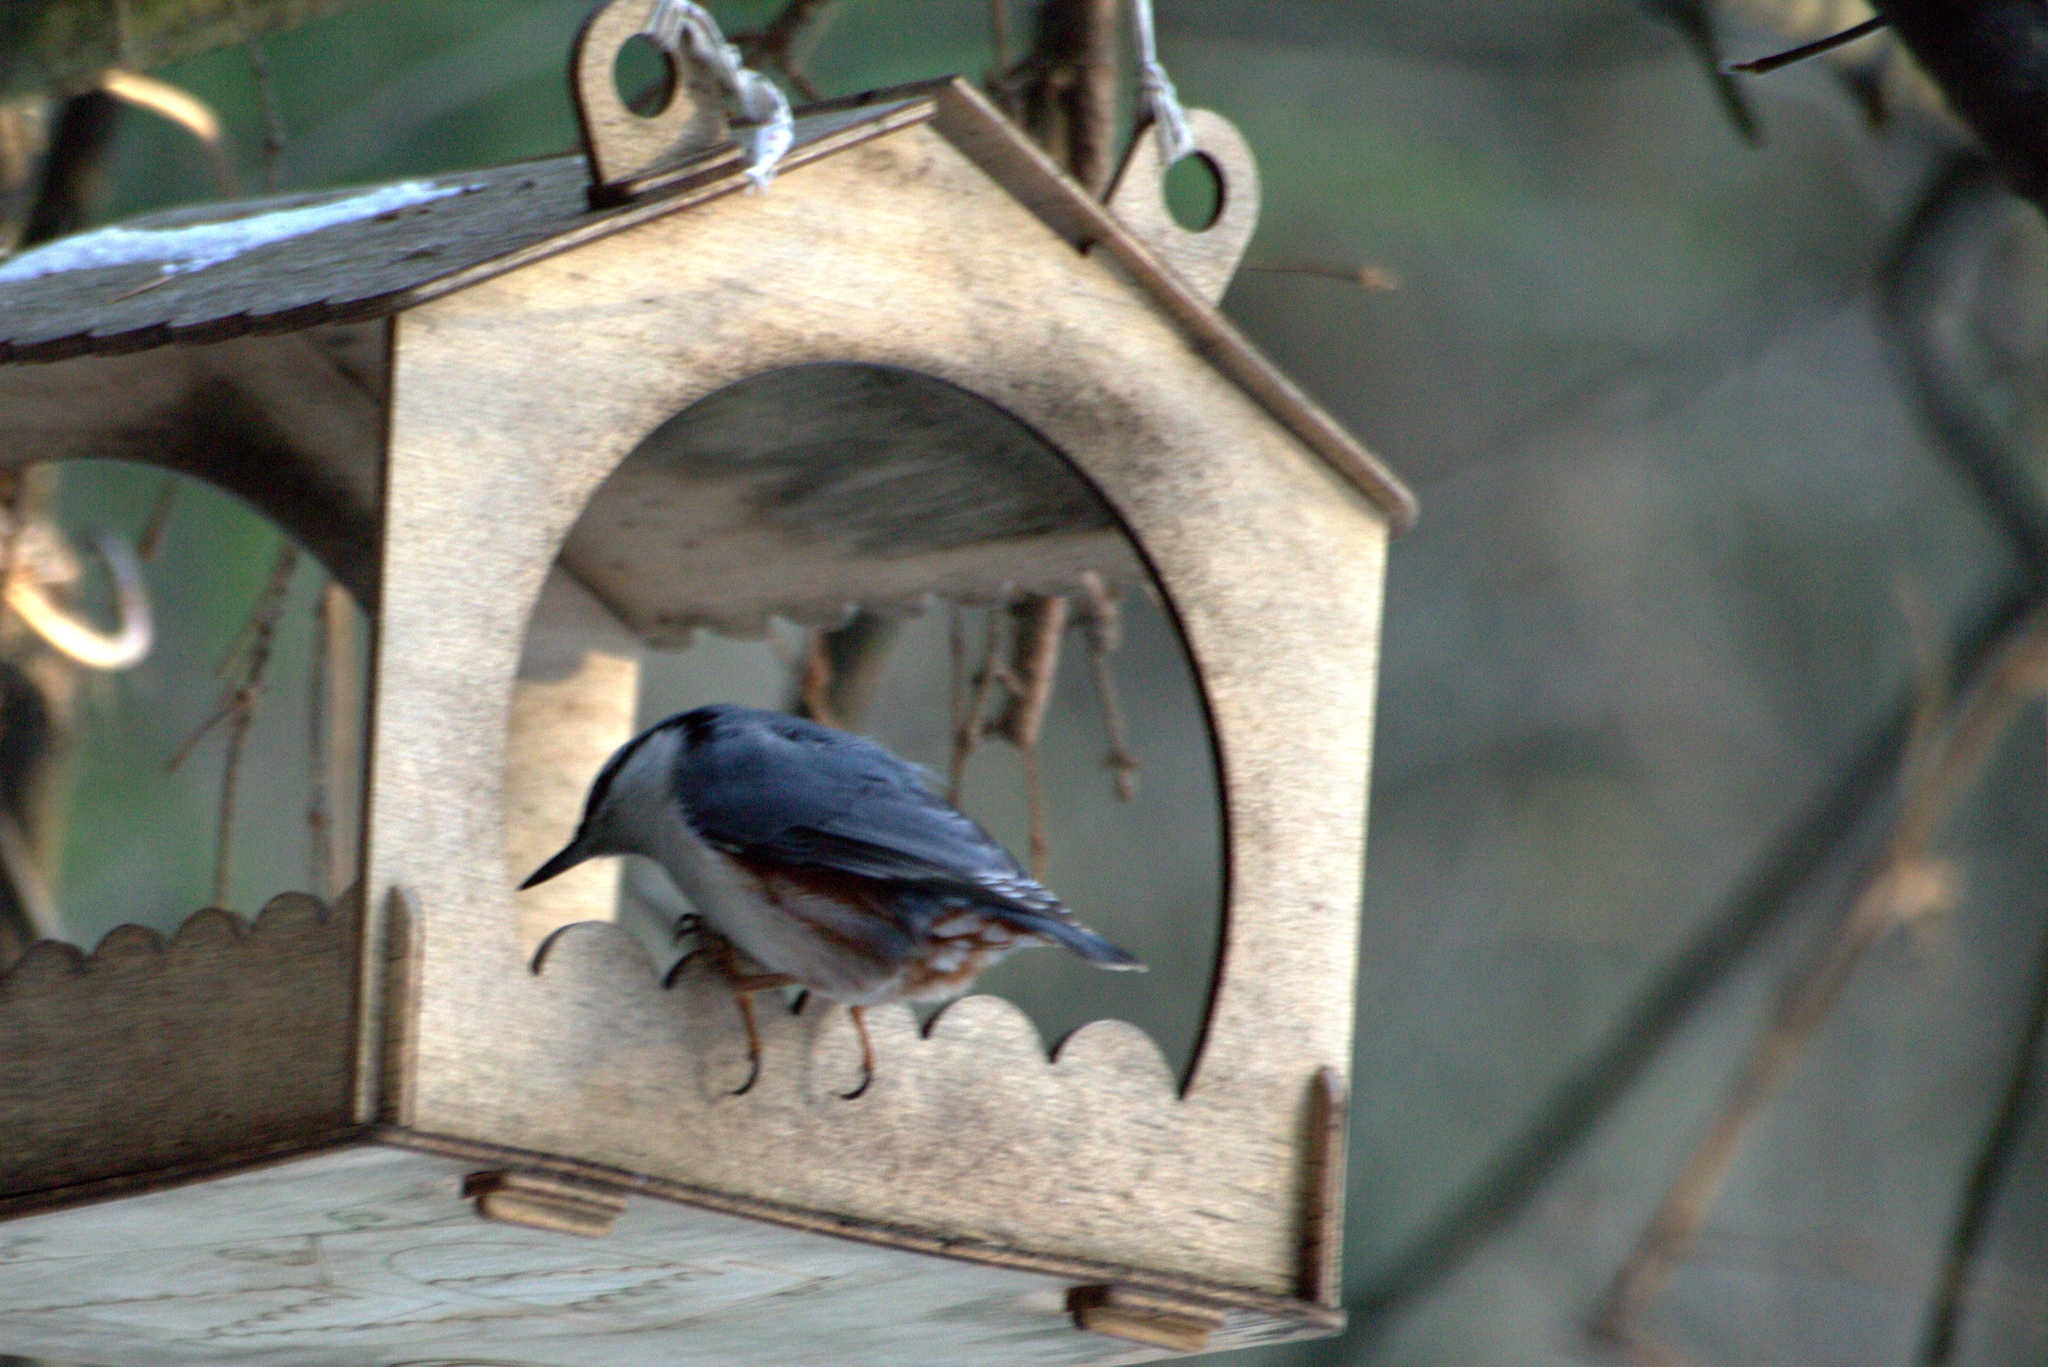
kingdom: Animalia
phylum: Chordata
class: Aves
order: Passeriformes
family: Sittidae
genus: Sitta
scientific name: Sitta europaea
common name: Eurasian nuthatch
